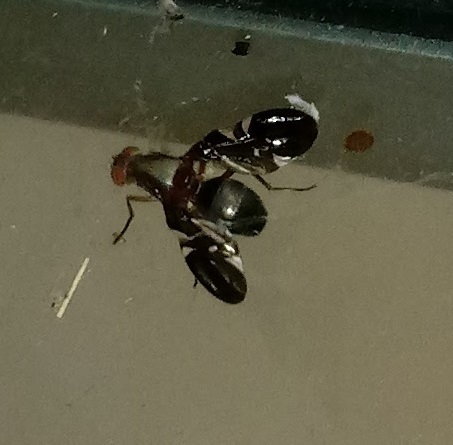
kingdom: Animalia
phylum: Arthropoda
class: Insecta
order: Diptera
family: Ulidiidae
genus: Delphinia
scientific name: Delphinia picta
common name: Common picture-winged fly
